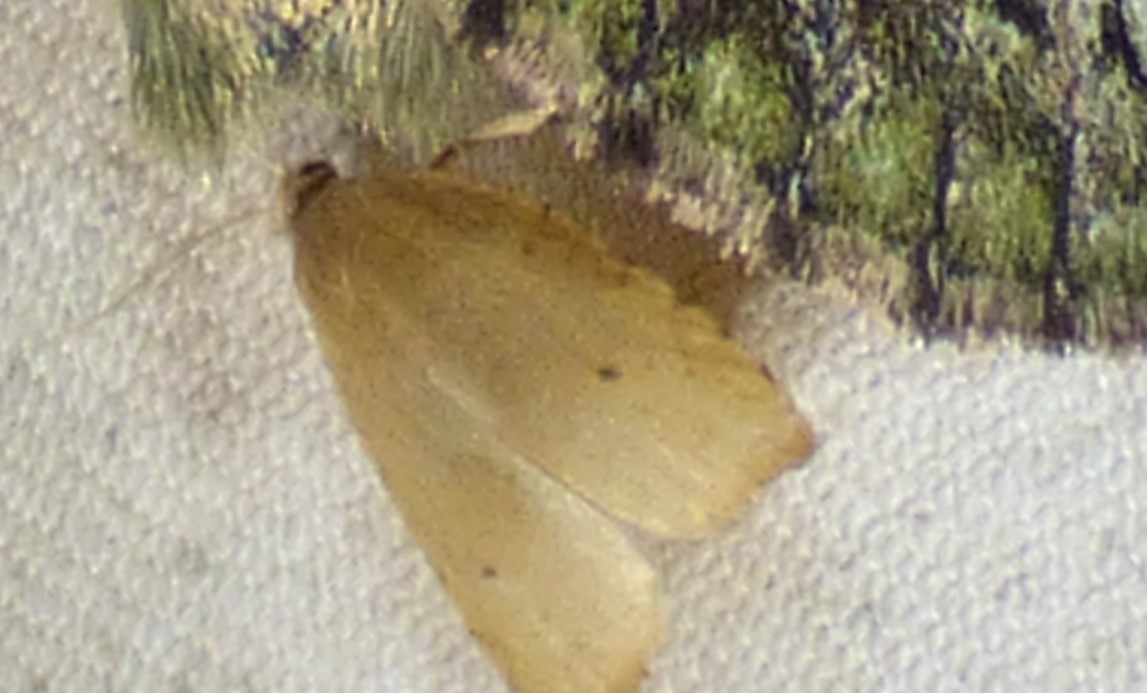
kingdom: Animalia
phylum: Arthropoda
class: Insecta
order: Lepidoptera
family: Tortricidae
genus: Coelostathma
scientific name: Coelostathma discopunctana
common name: Batman moth
